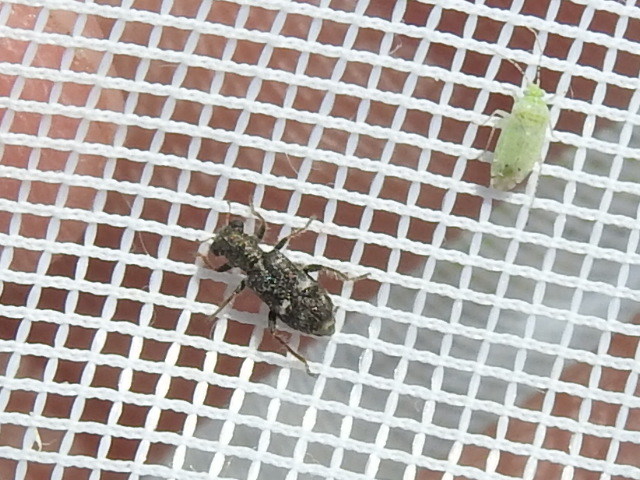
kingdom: Animalia
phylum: Arthropoda
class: Insecta
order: Coleoptera
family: Cleridae
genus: Phyllobaenus
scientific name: Phyllobaenus subfasciatus
